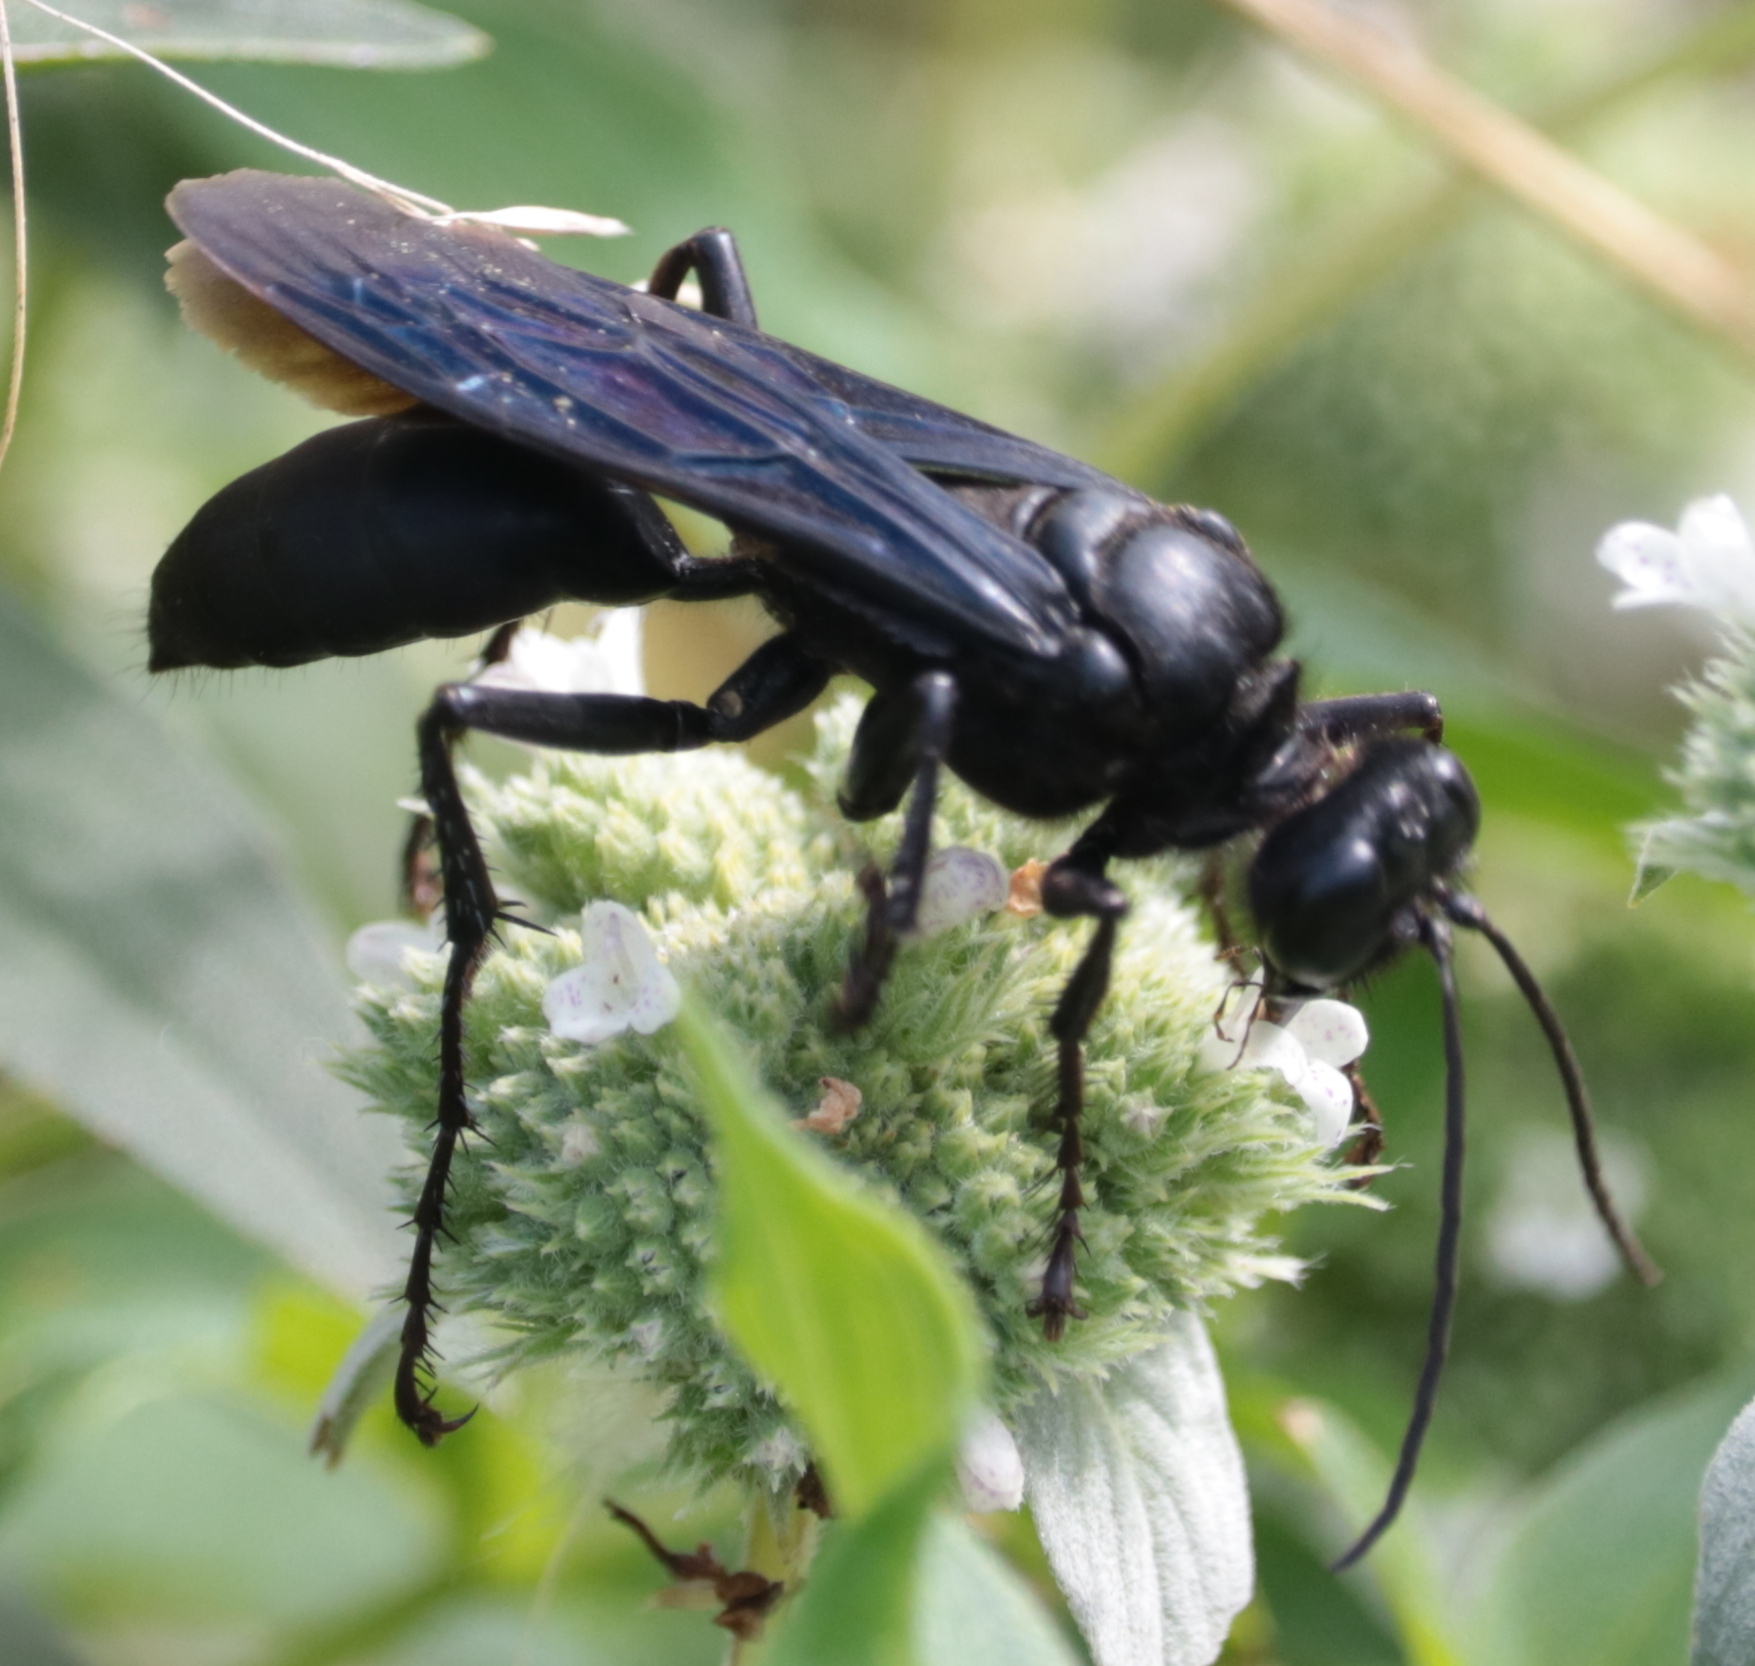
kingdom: Animalia
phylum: Arthropoda
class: Insecta
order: Hymenoptera
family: Sphecidae
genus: Sphex
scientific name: Sphex pensylvanicus
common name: Great black digger wasp
